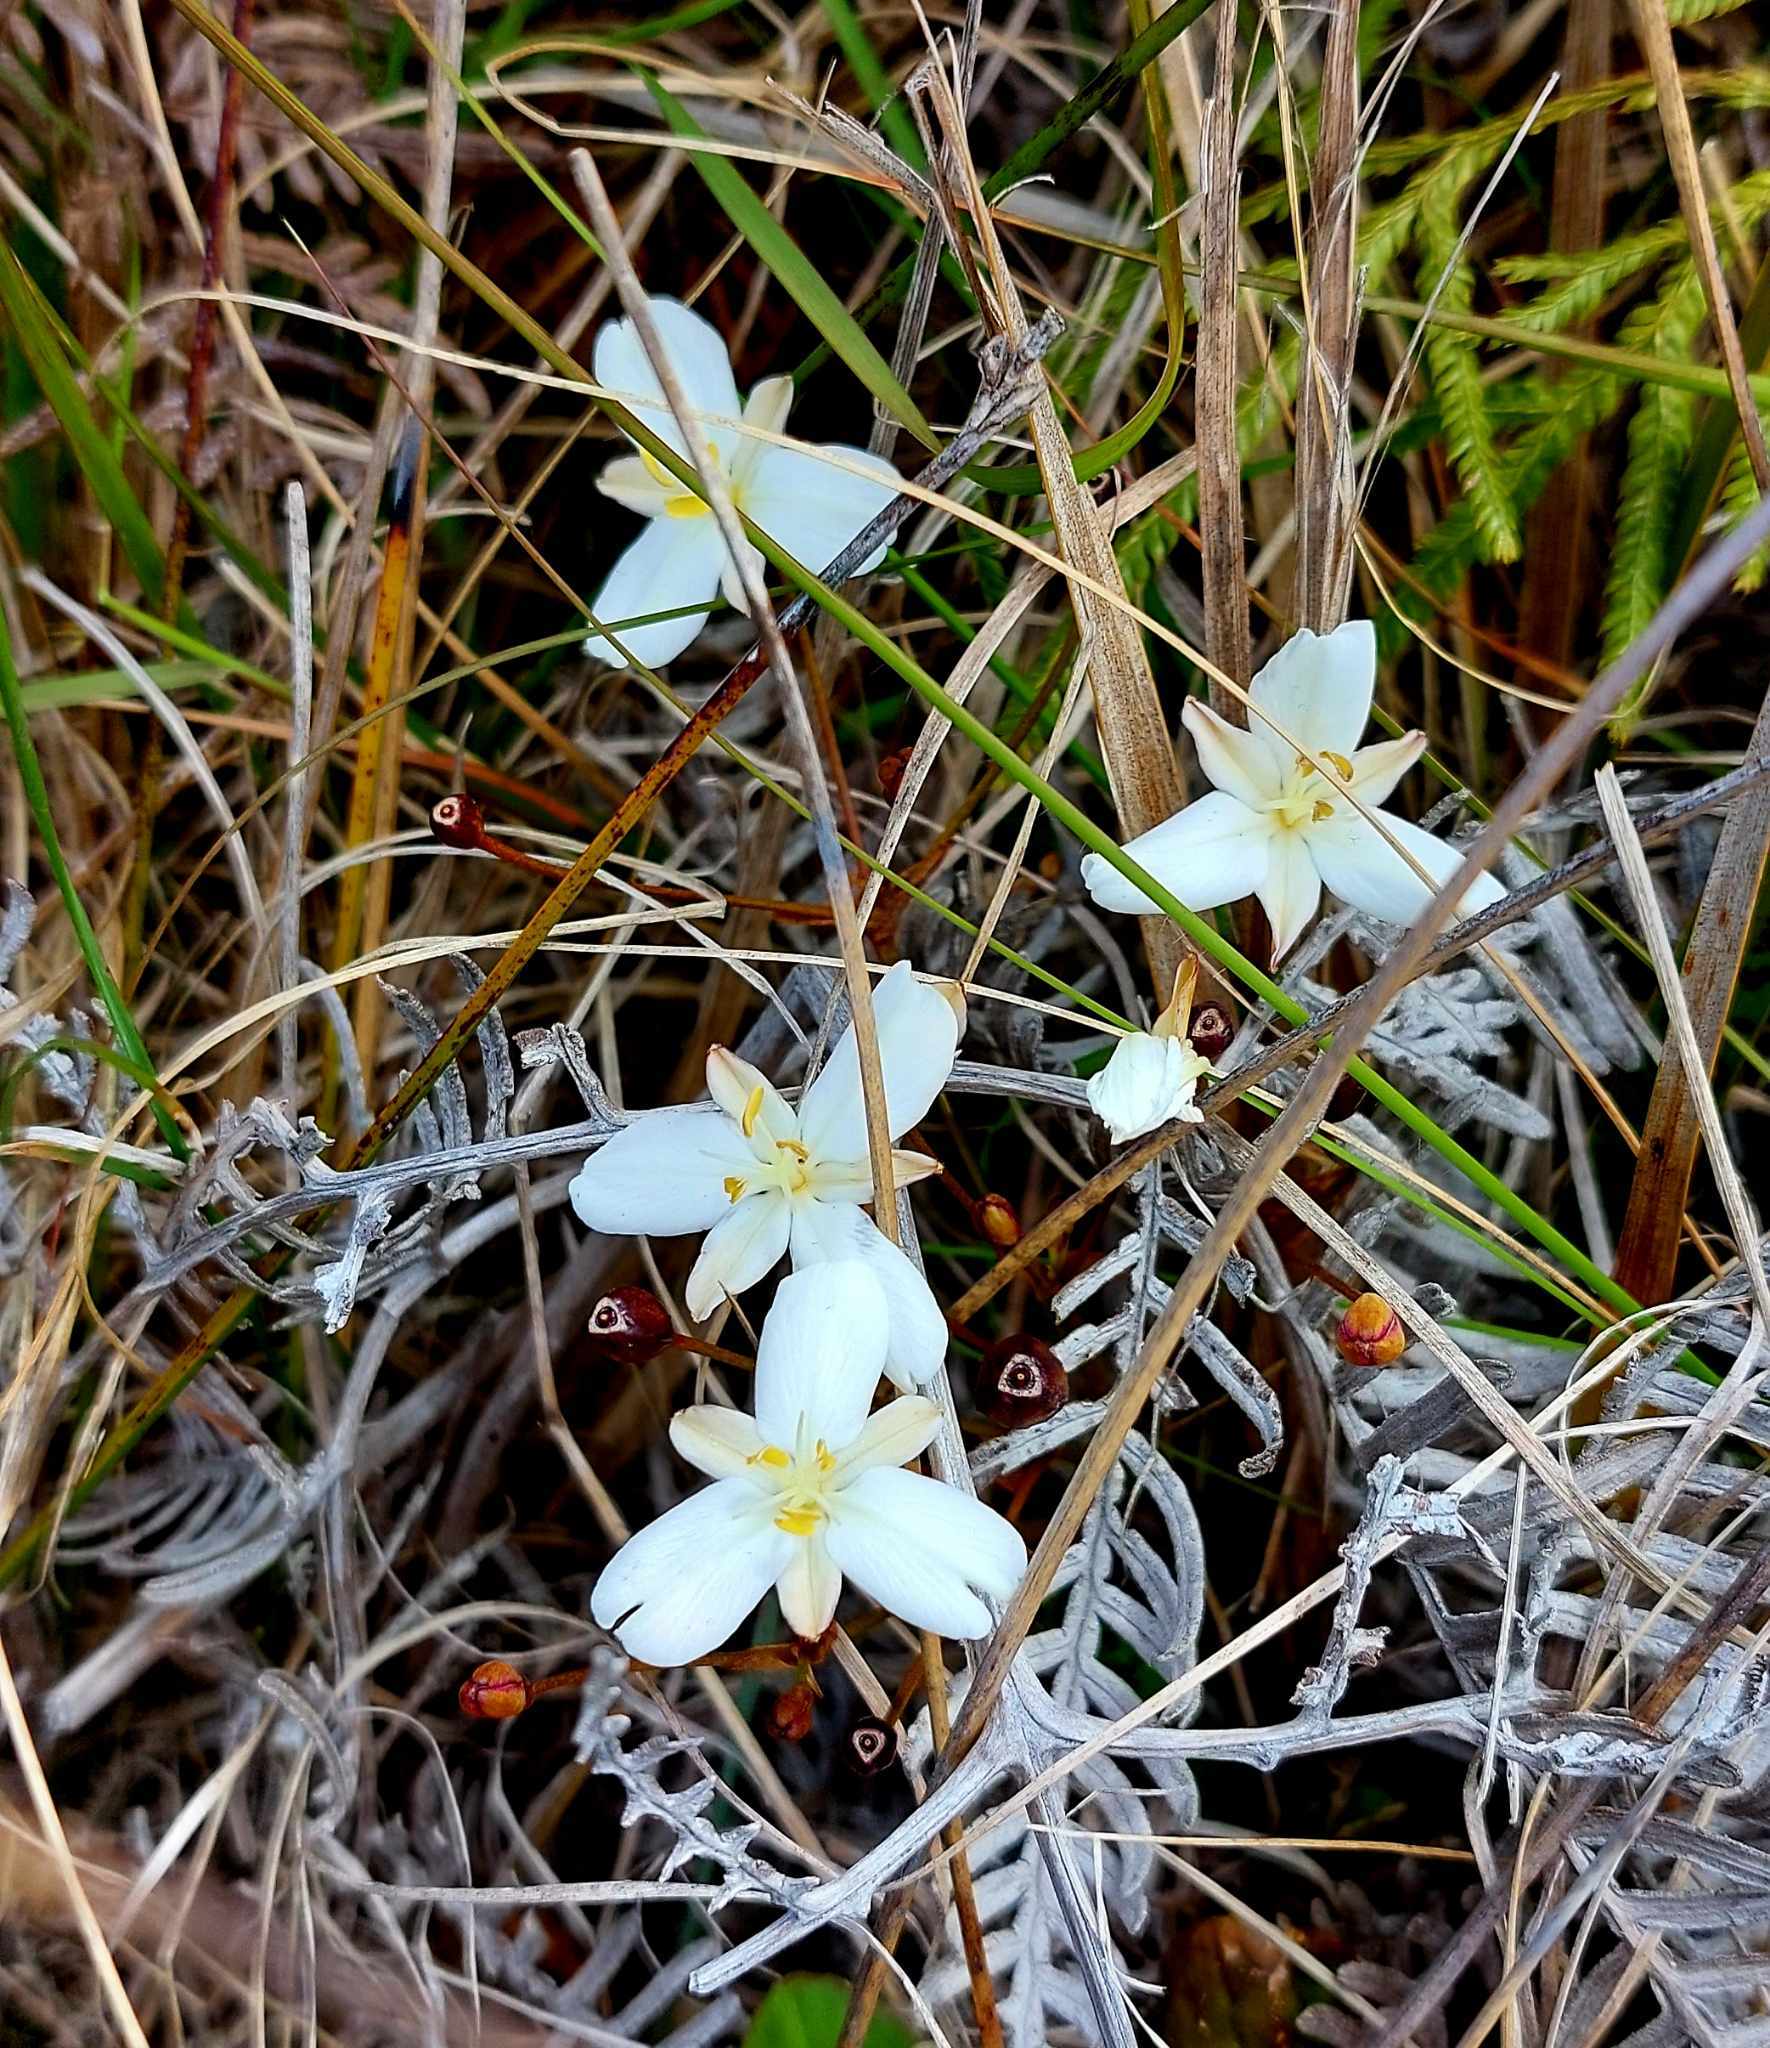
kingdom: Plantae
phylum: Tracheophyta
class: Liliopsida
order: Asparagales
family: Iridaceae
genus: Libertia
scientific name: Libertia peregrinans
